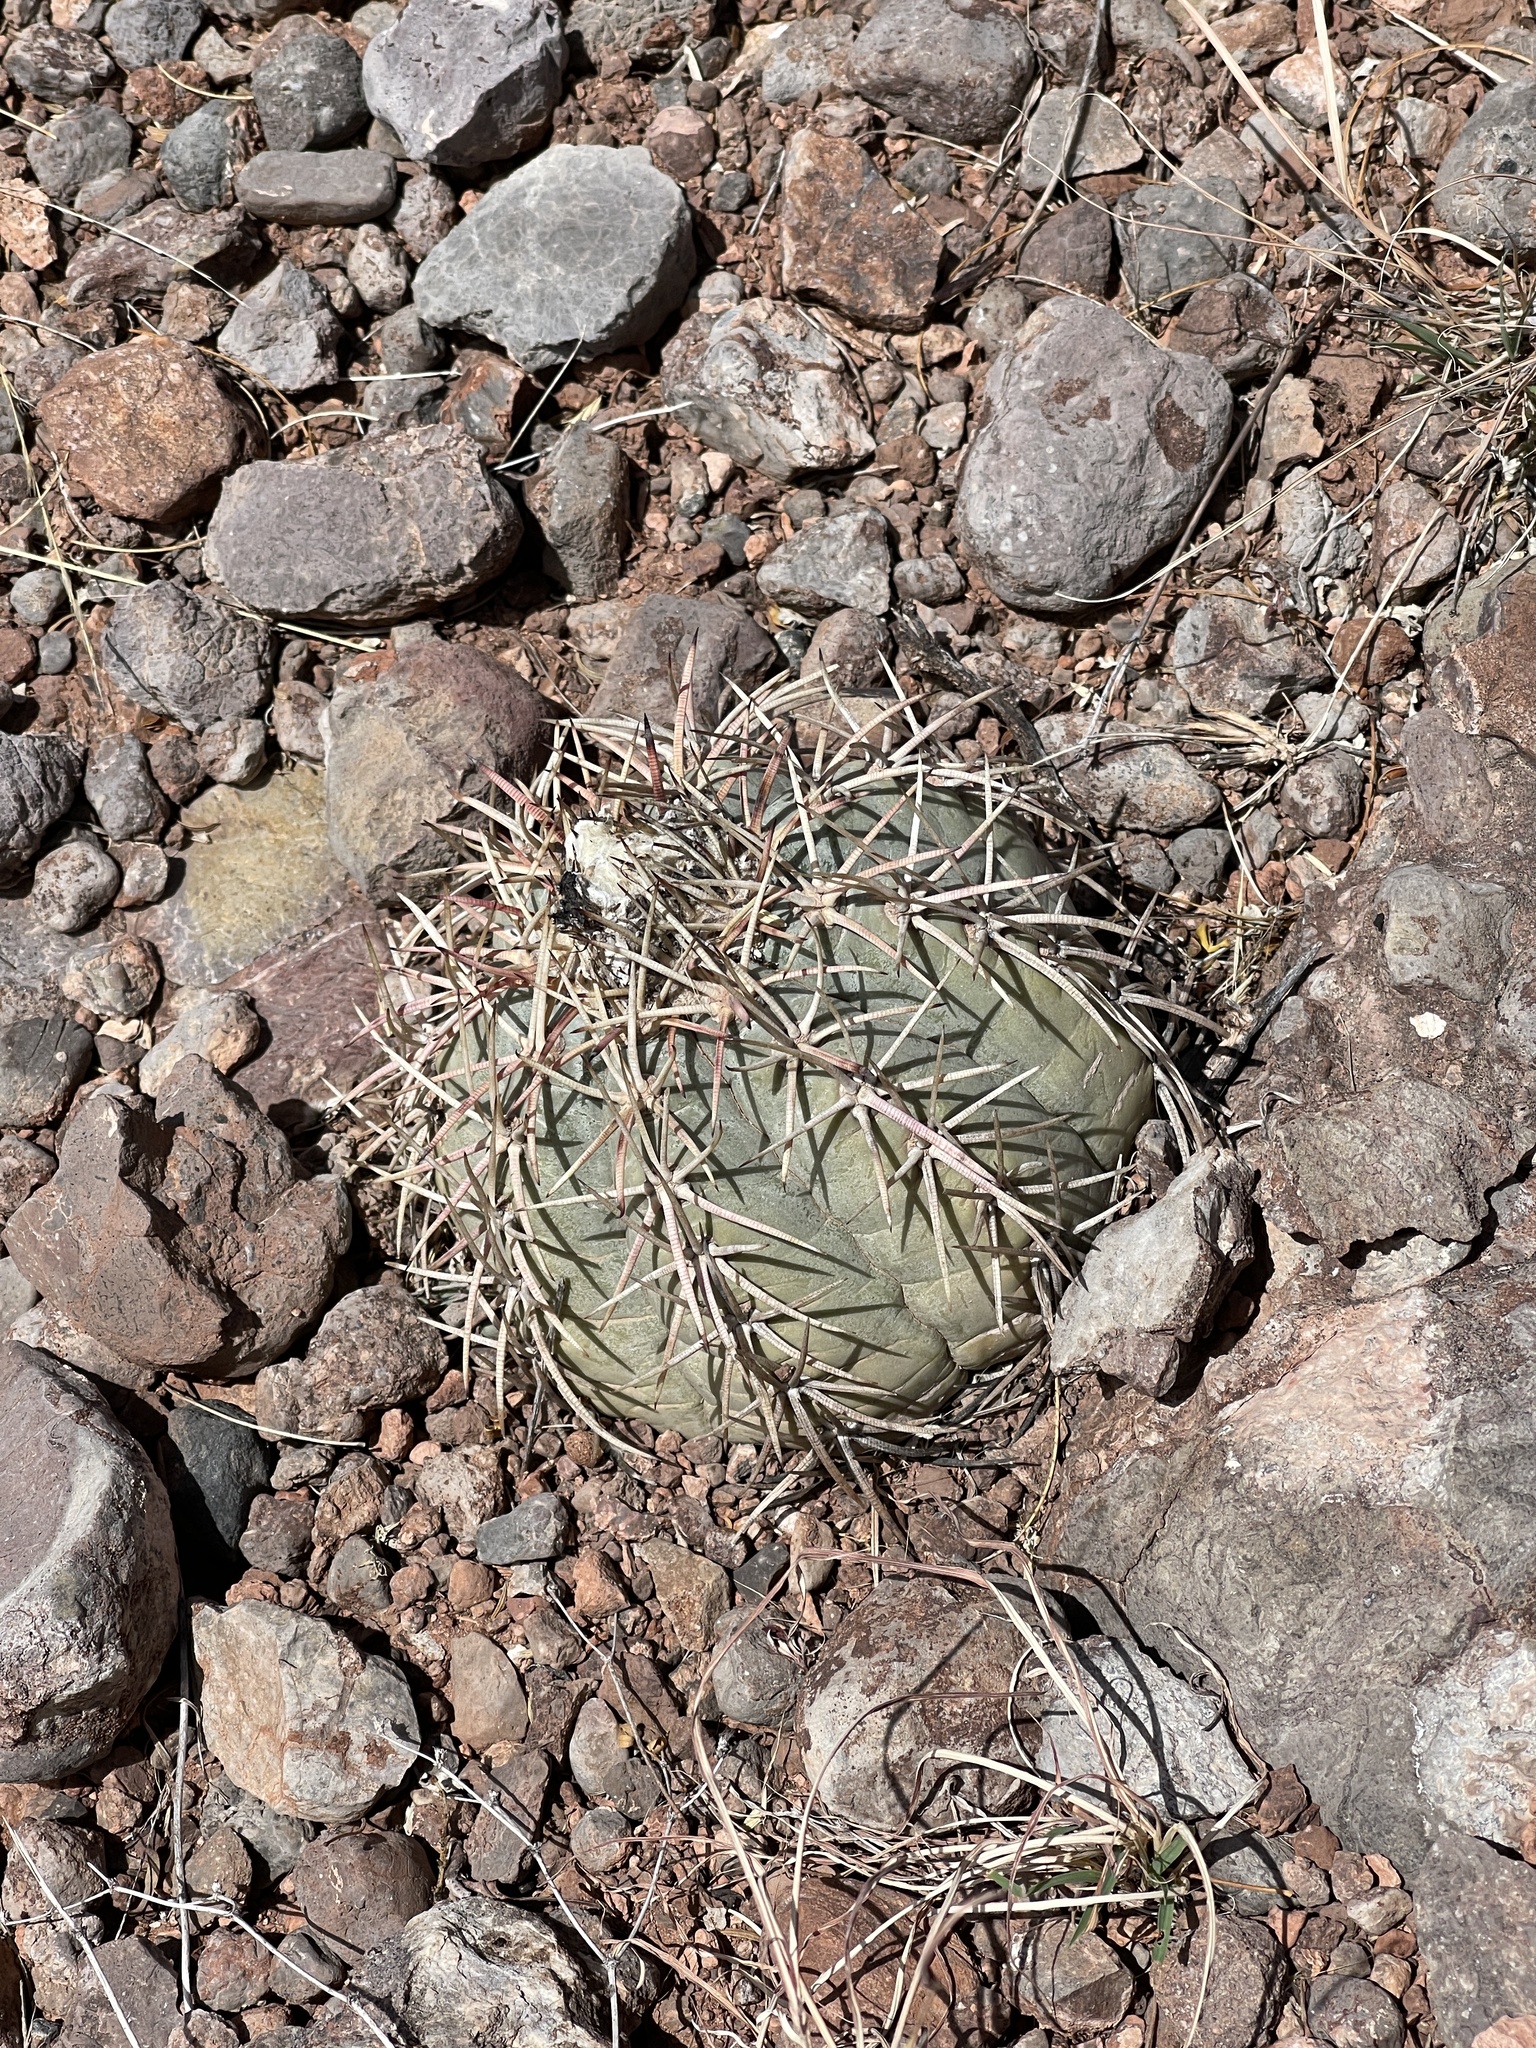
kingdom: Plantae
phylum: Tracheophyta
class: Magnoliopsida
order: Caryophyllales
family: Cactaceae
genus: Echinocactus
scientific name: Echinocactus horizonthalonius
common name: Devilshead
